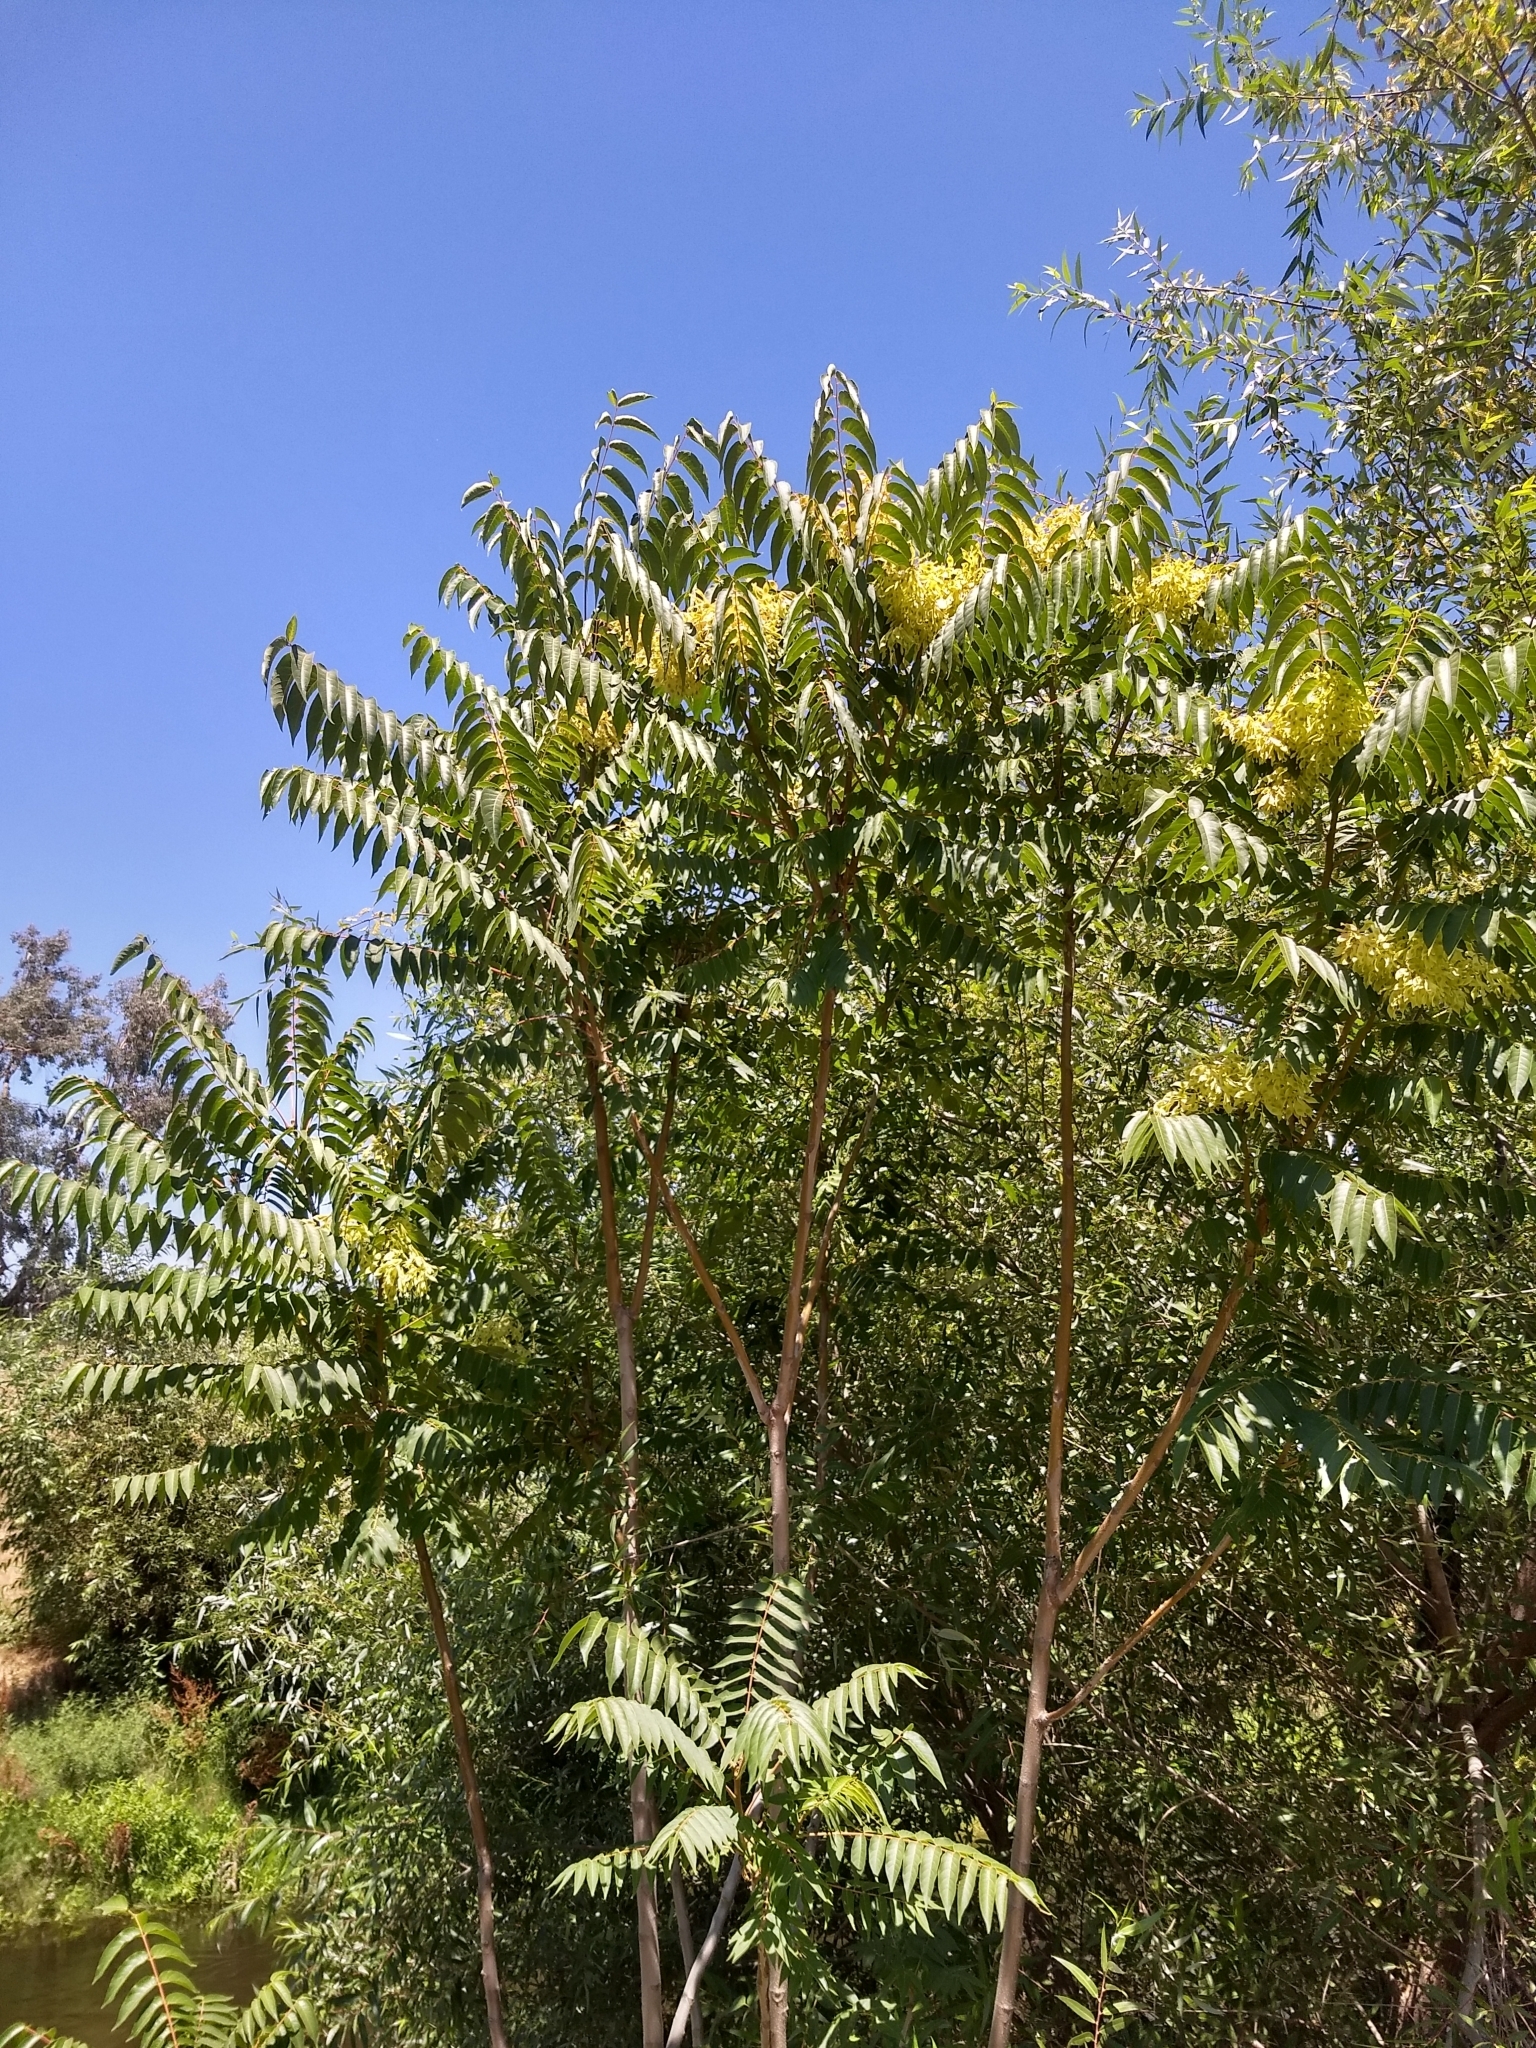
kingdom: Plantae
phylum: Tracheophyta
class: Magnoliopsida
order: Sapindales
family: Simaroubaceae
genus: Ailanthus
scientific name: Ailanthus altissima
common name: Tree-of-heaven
